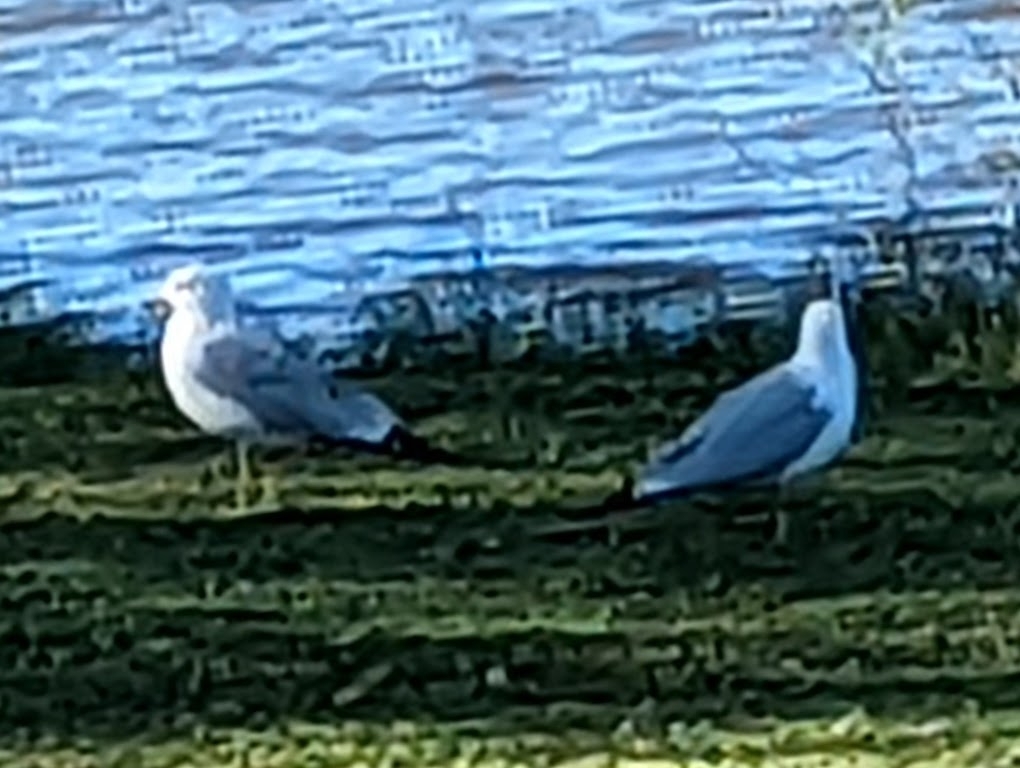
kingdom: Animalia
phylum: Chordata
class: Aves
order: Charadriiformes
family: Laridae
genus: Larus
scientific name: Larus delawarensis
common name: Ring-billed gull
